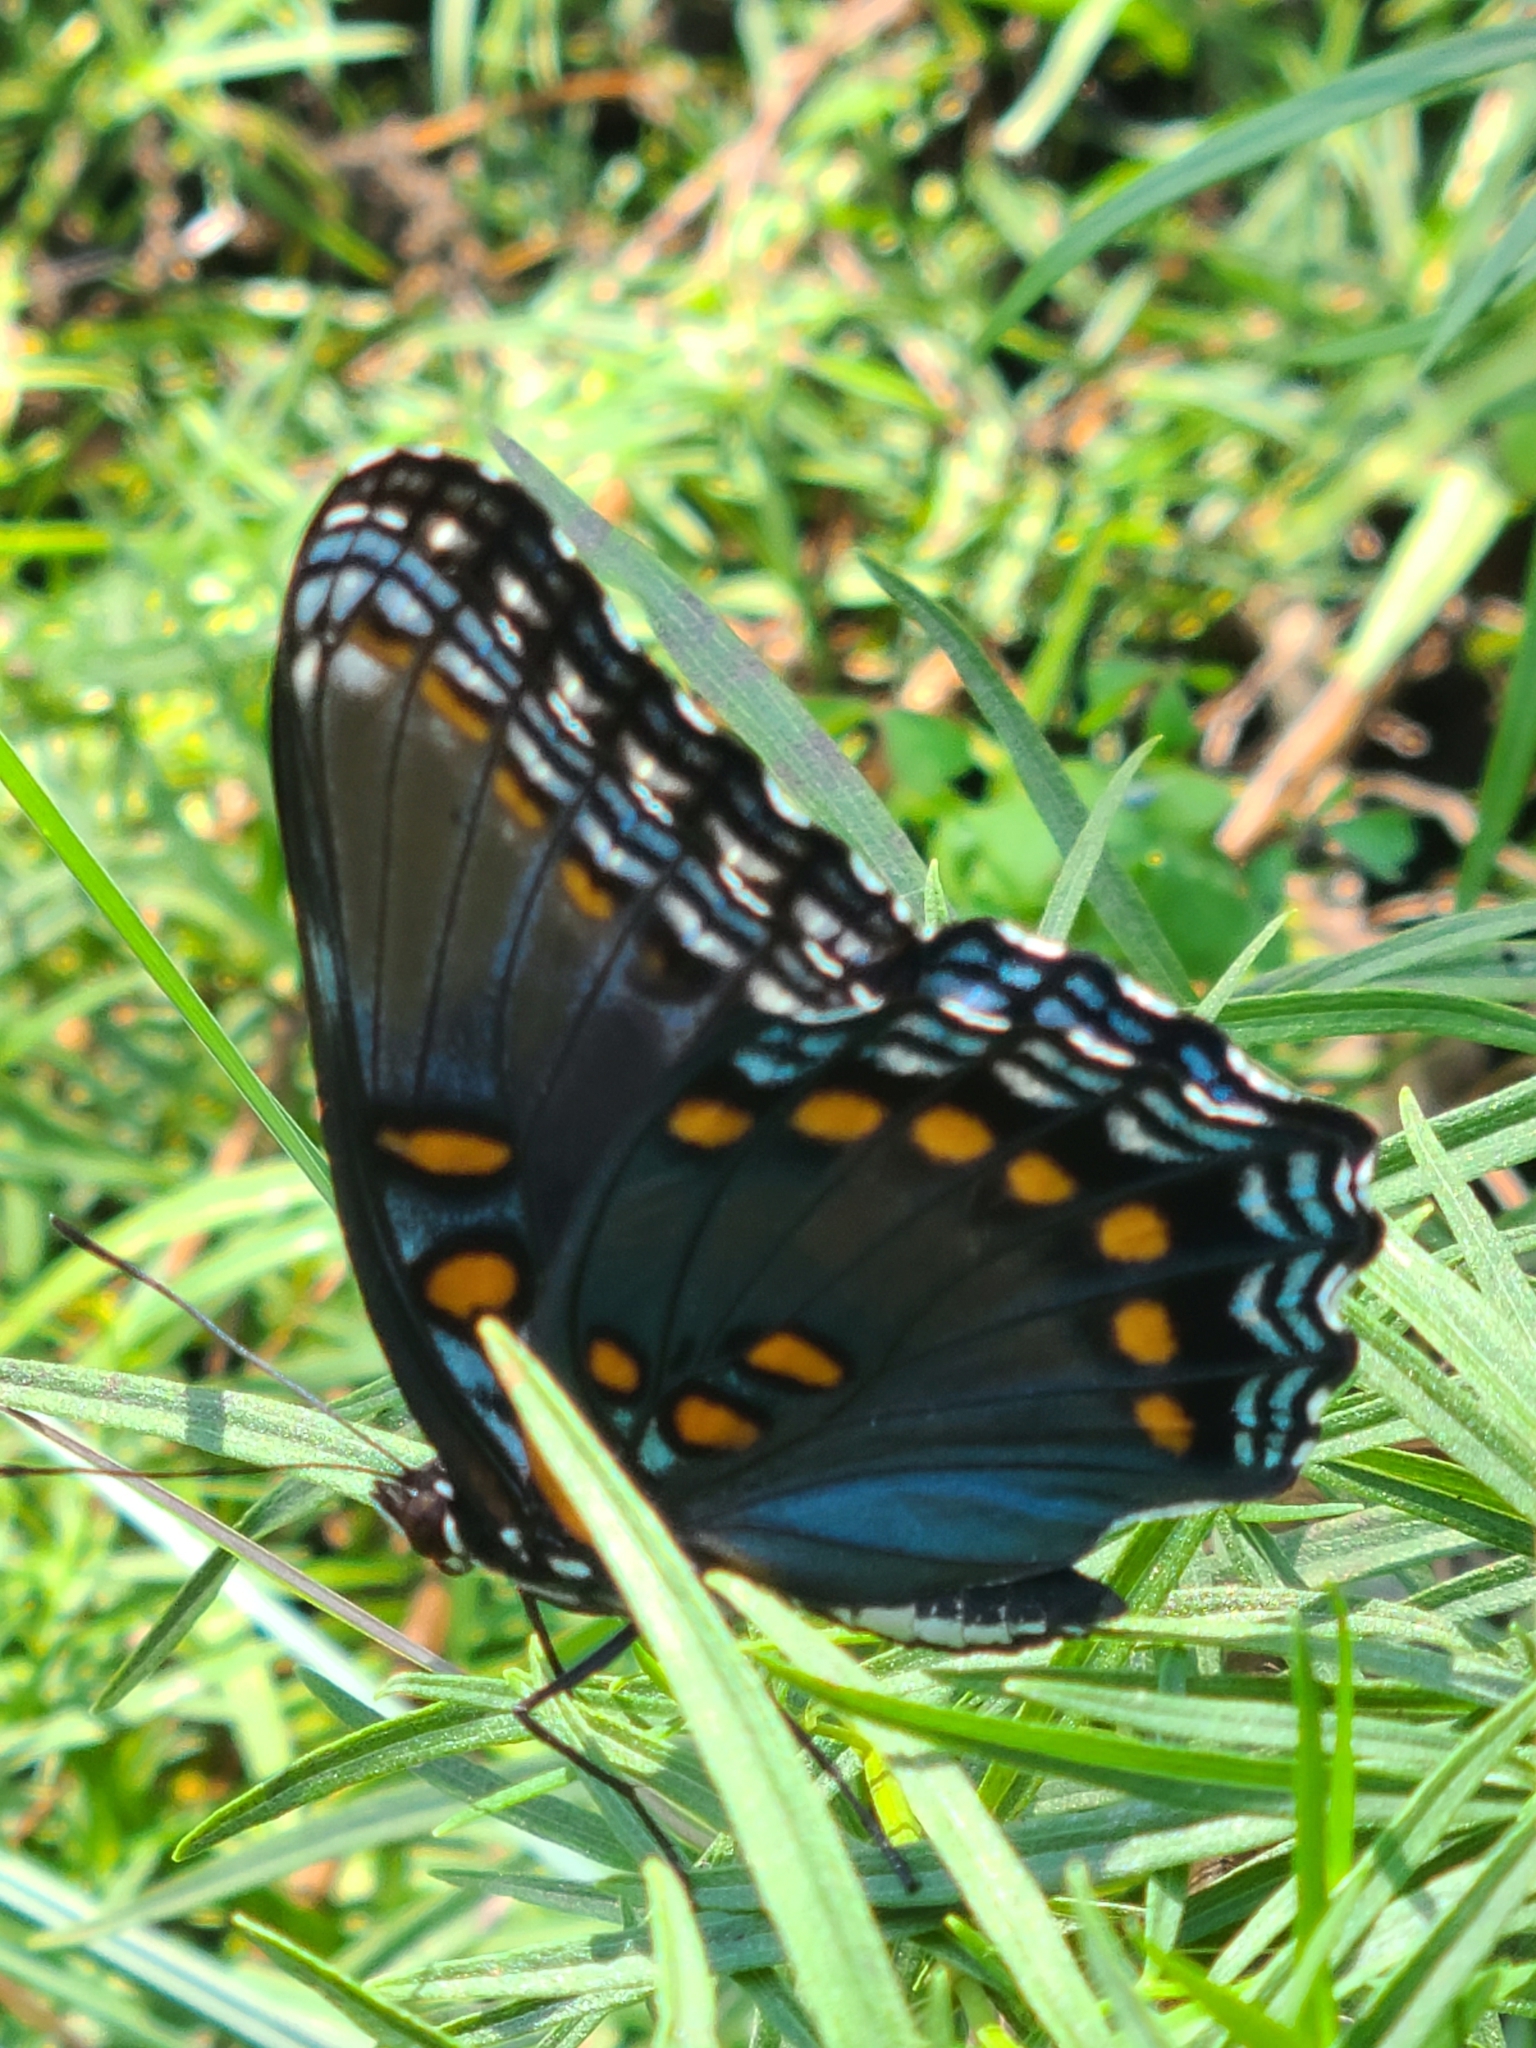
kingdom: Animalia
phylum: Arthropoda
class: Insecta
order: Lepidoptera
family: Nymphalidae
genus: Limenitis
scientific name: Limenitis astyanax
